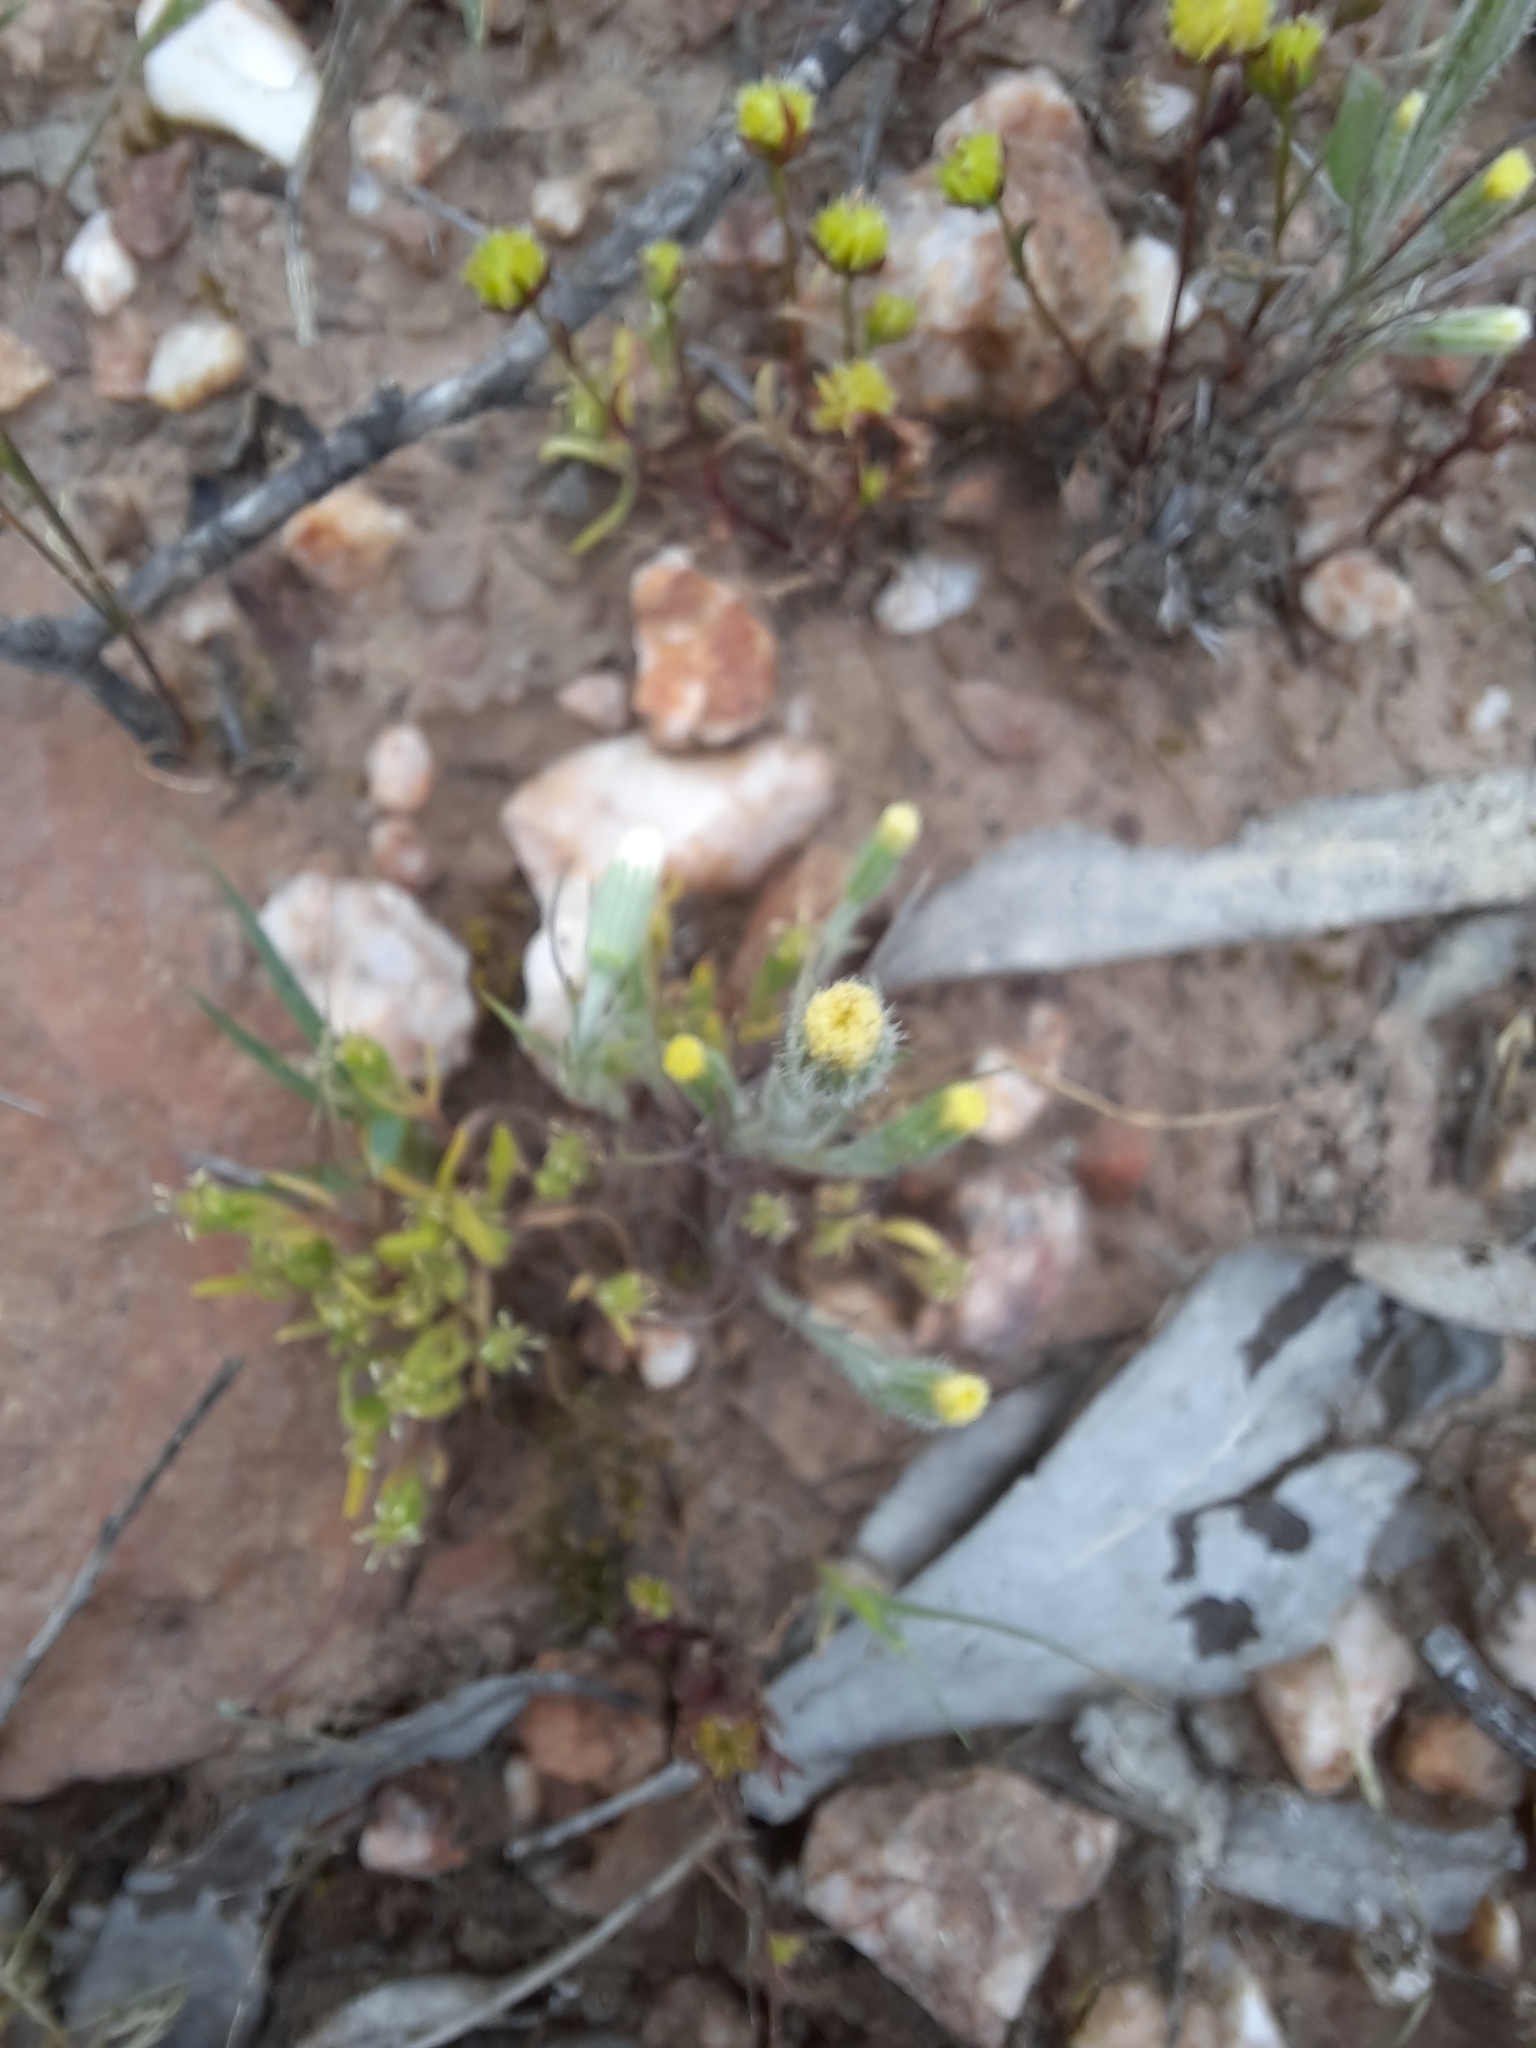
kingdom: Plantae
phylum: Tracheophyta
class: Magnoliopsida
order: Asterales
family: Asteraceae
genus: Millotia
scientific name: Millotia tenuifolia
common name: Soft millotia
